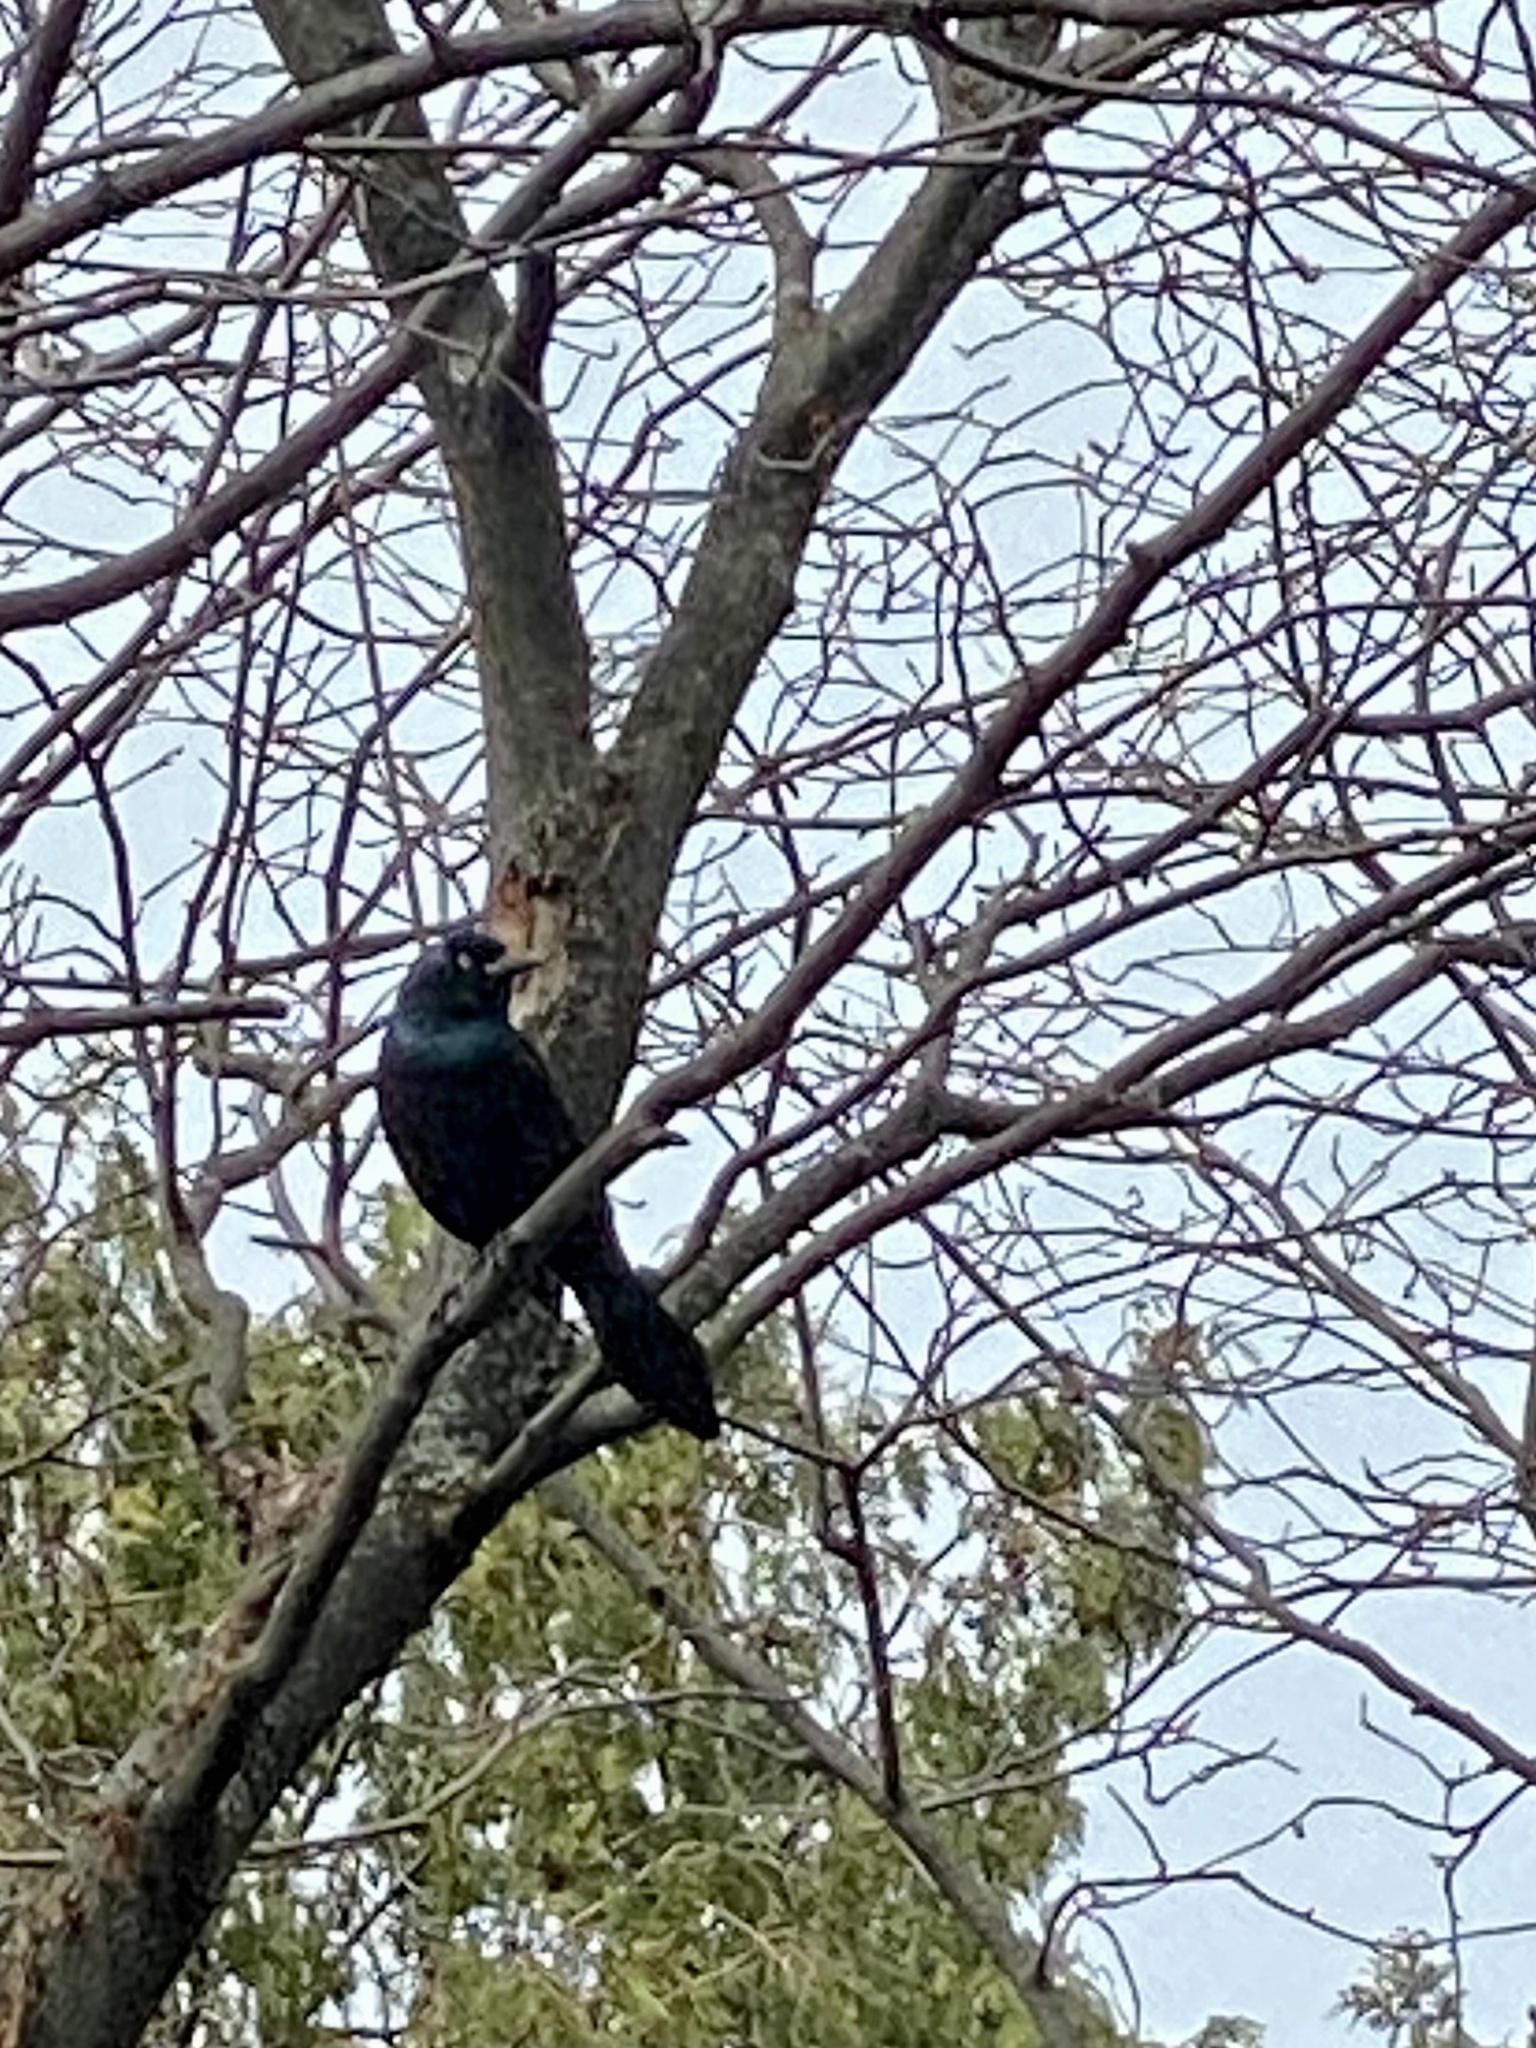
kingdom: Animalia
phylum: Chordata
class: Aves
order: Passeriformes
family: Icteridae
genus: Quiscalus
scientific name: Quiscalus quiscula
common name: Common grackle
